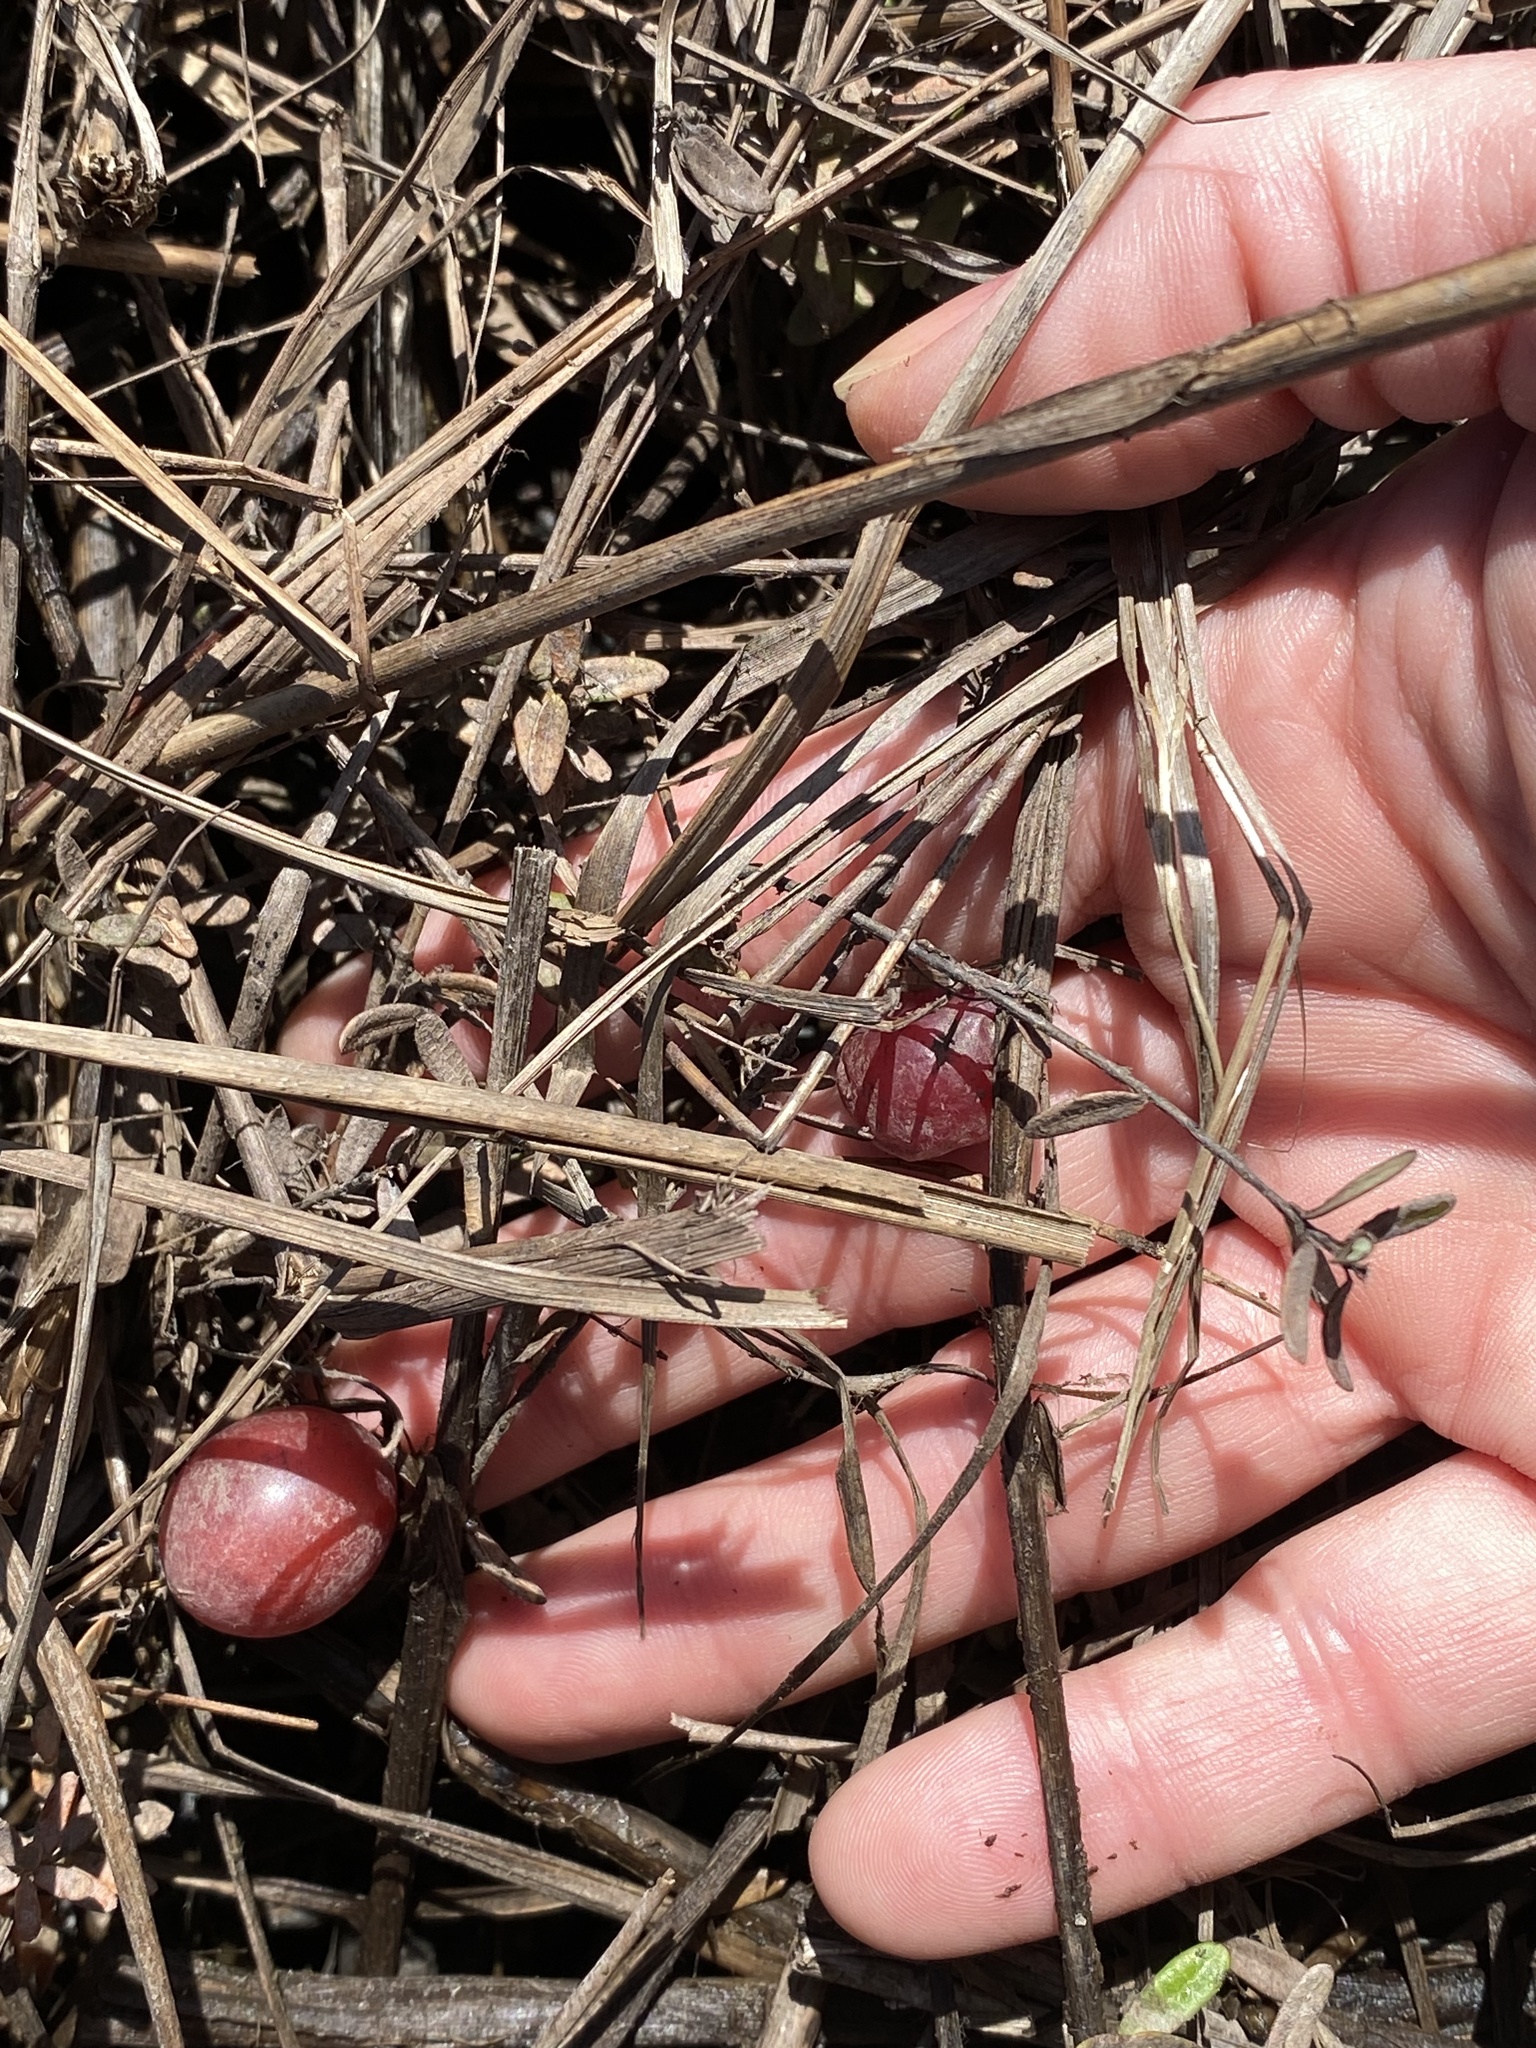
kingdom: Plantae
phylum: Tracheophyta
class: Magnoliopsida
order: Ericales
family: Ericaceae
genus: Vaccinium
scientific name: Vaccinium macrocarpon
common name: American cranberry
